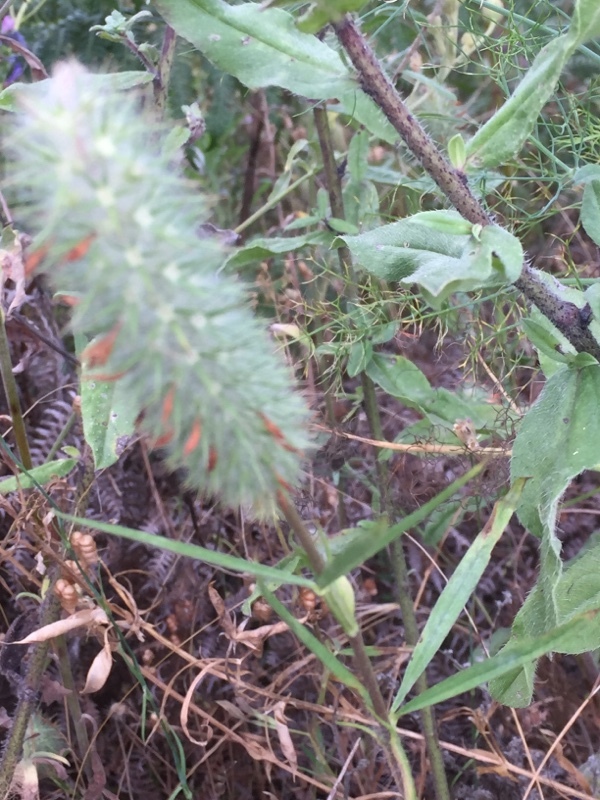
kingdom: Plantae
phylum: Tracheophyta
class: Magnoliopsida
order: Fabales
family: Fabaceae
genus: Trifolium
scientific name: Trifolium angustifolium
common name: Narrow clover
